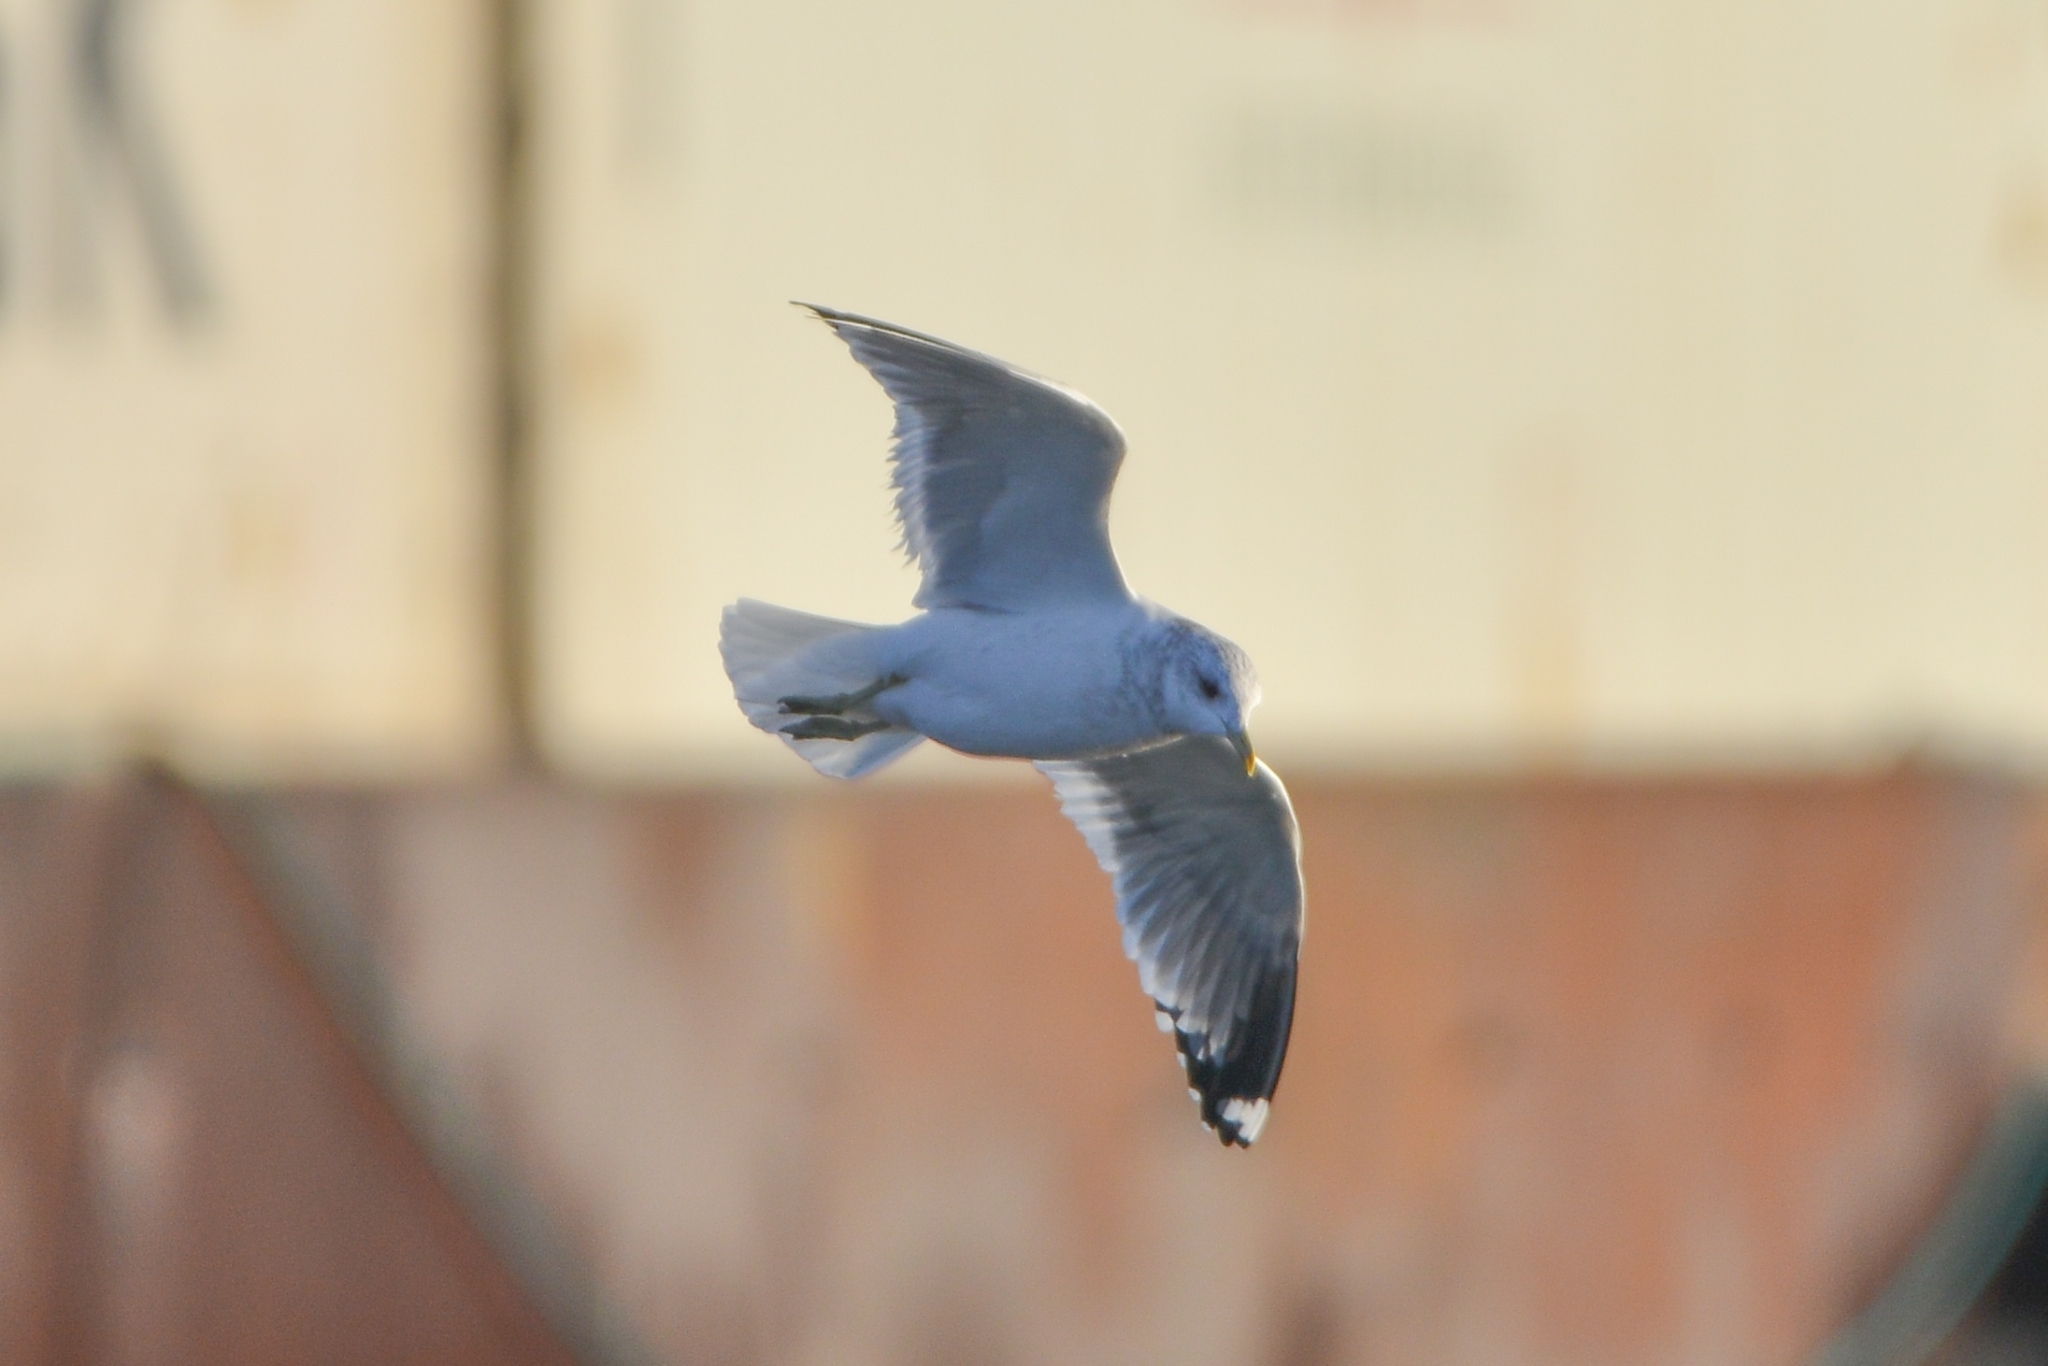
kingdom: Animalia
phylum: Chordata
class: Aves
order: Charadriiformes
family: Laridae
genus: Larus
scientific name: Larus canus
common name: Mew gull
